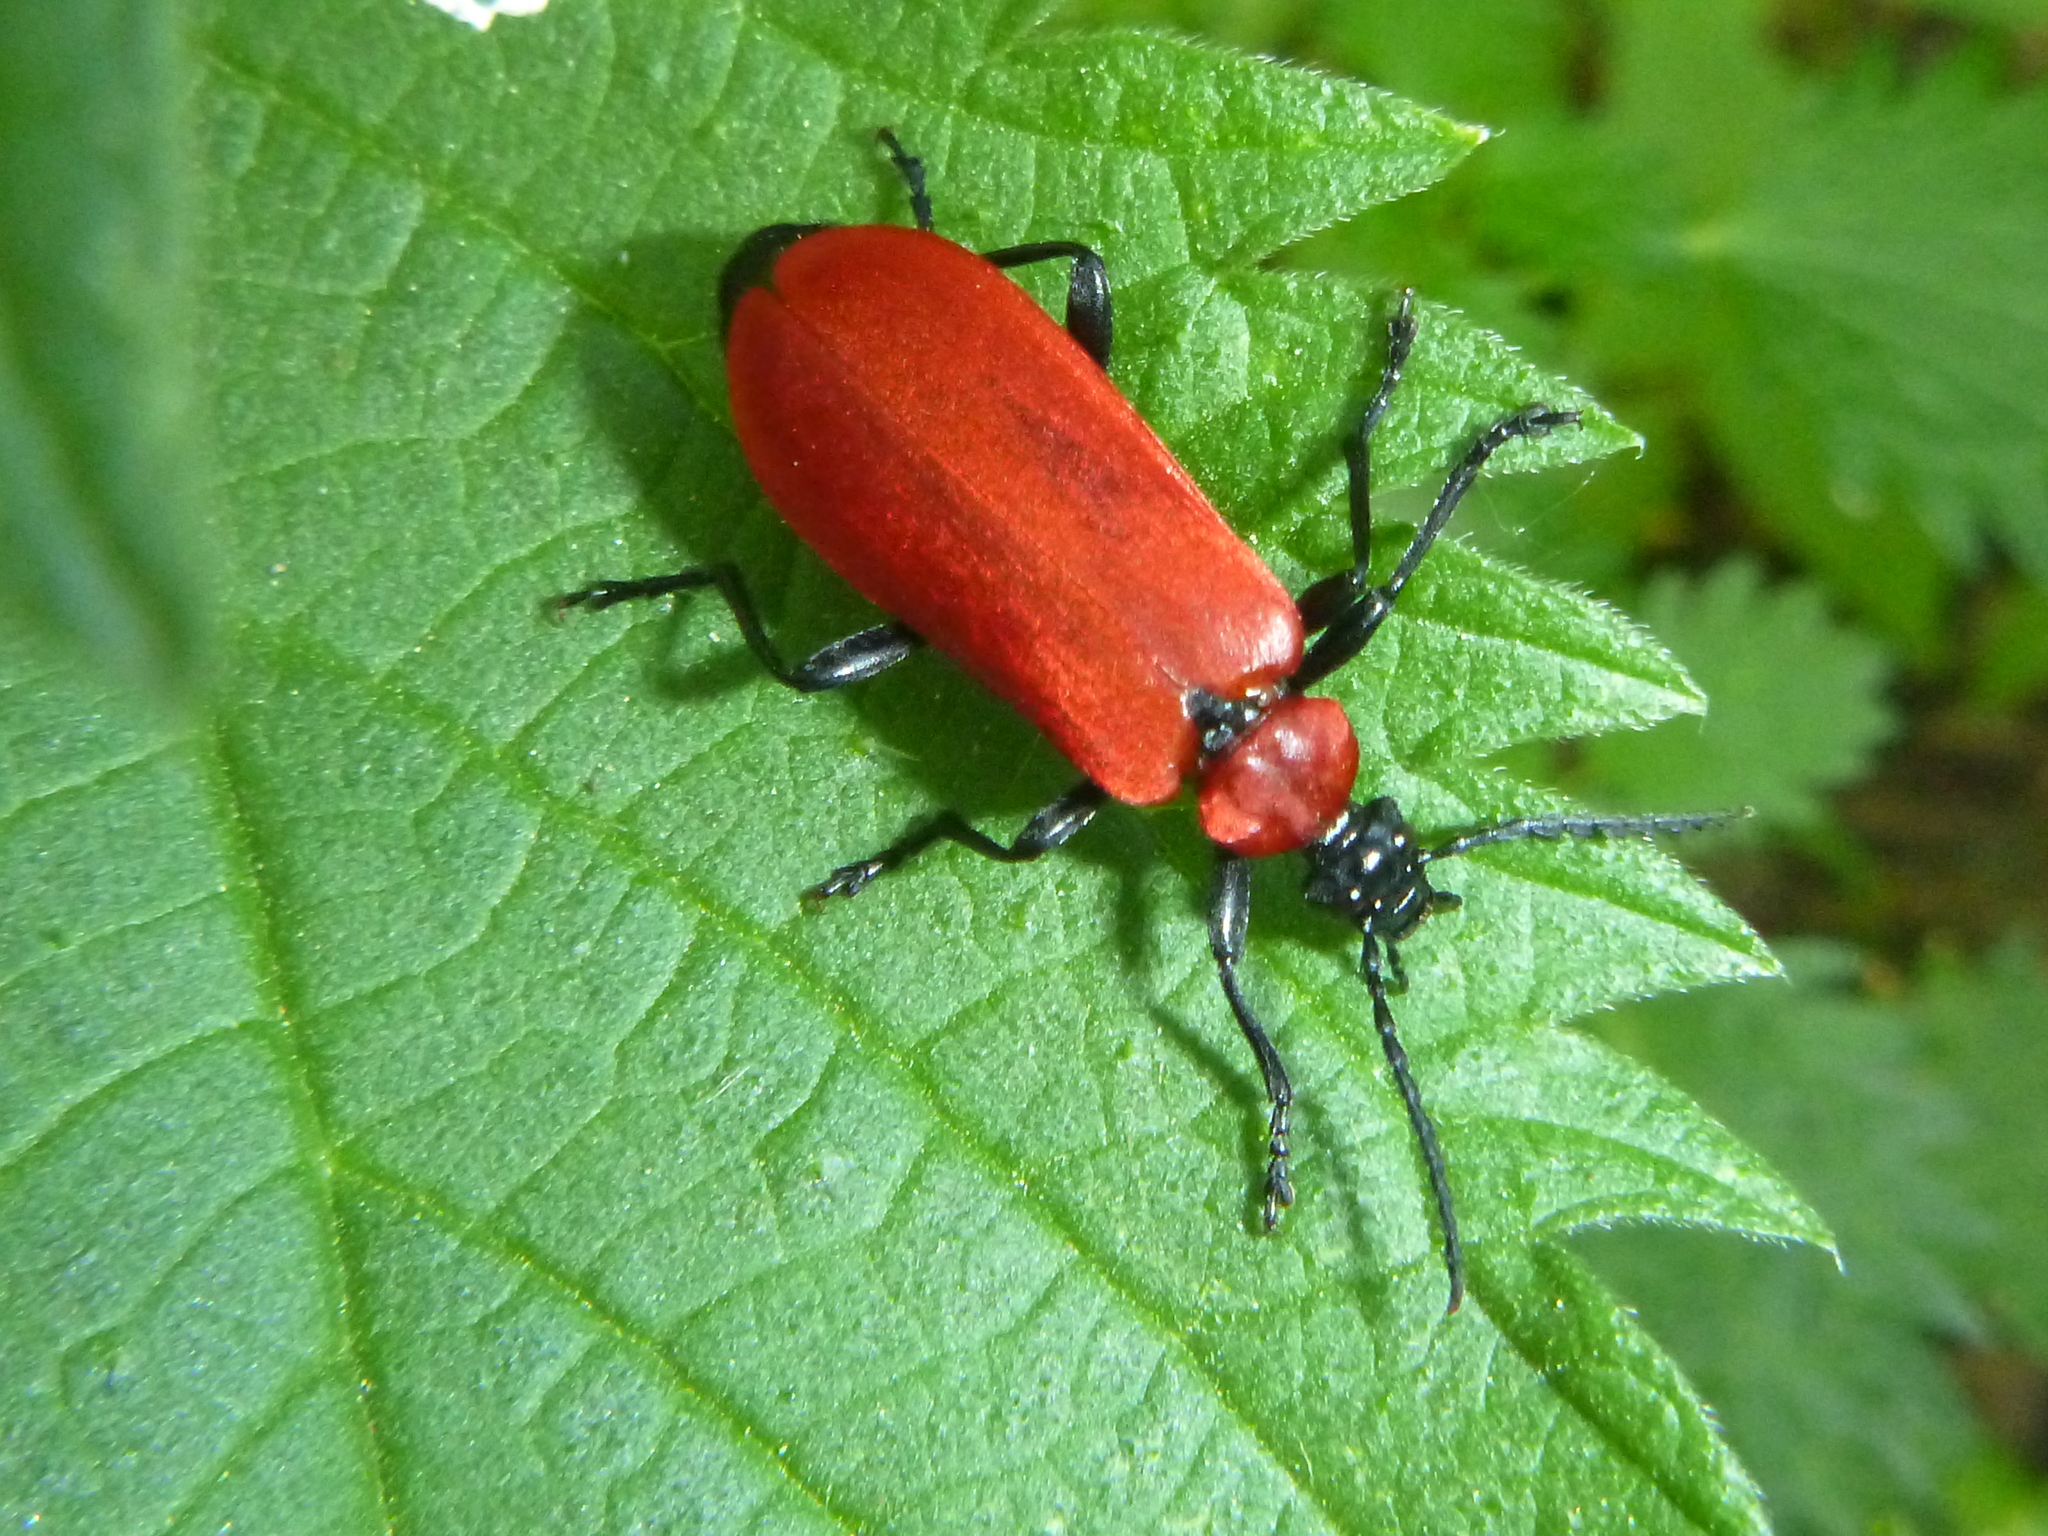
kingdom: Animalia
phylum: Arthropoda
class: Insecta
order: Coleoptera
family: Pyrochroidae
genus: Pyrochroa
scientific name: Pyrochroa coccinea
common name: Black-headed cardinal beetle
